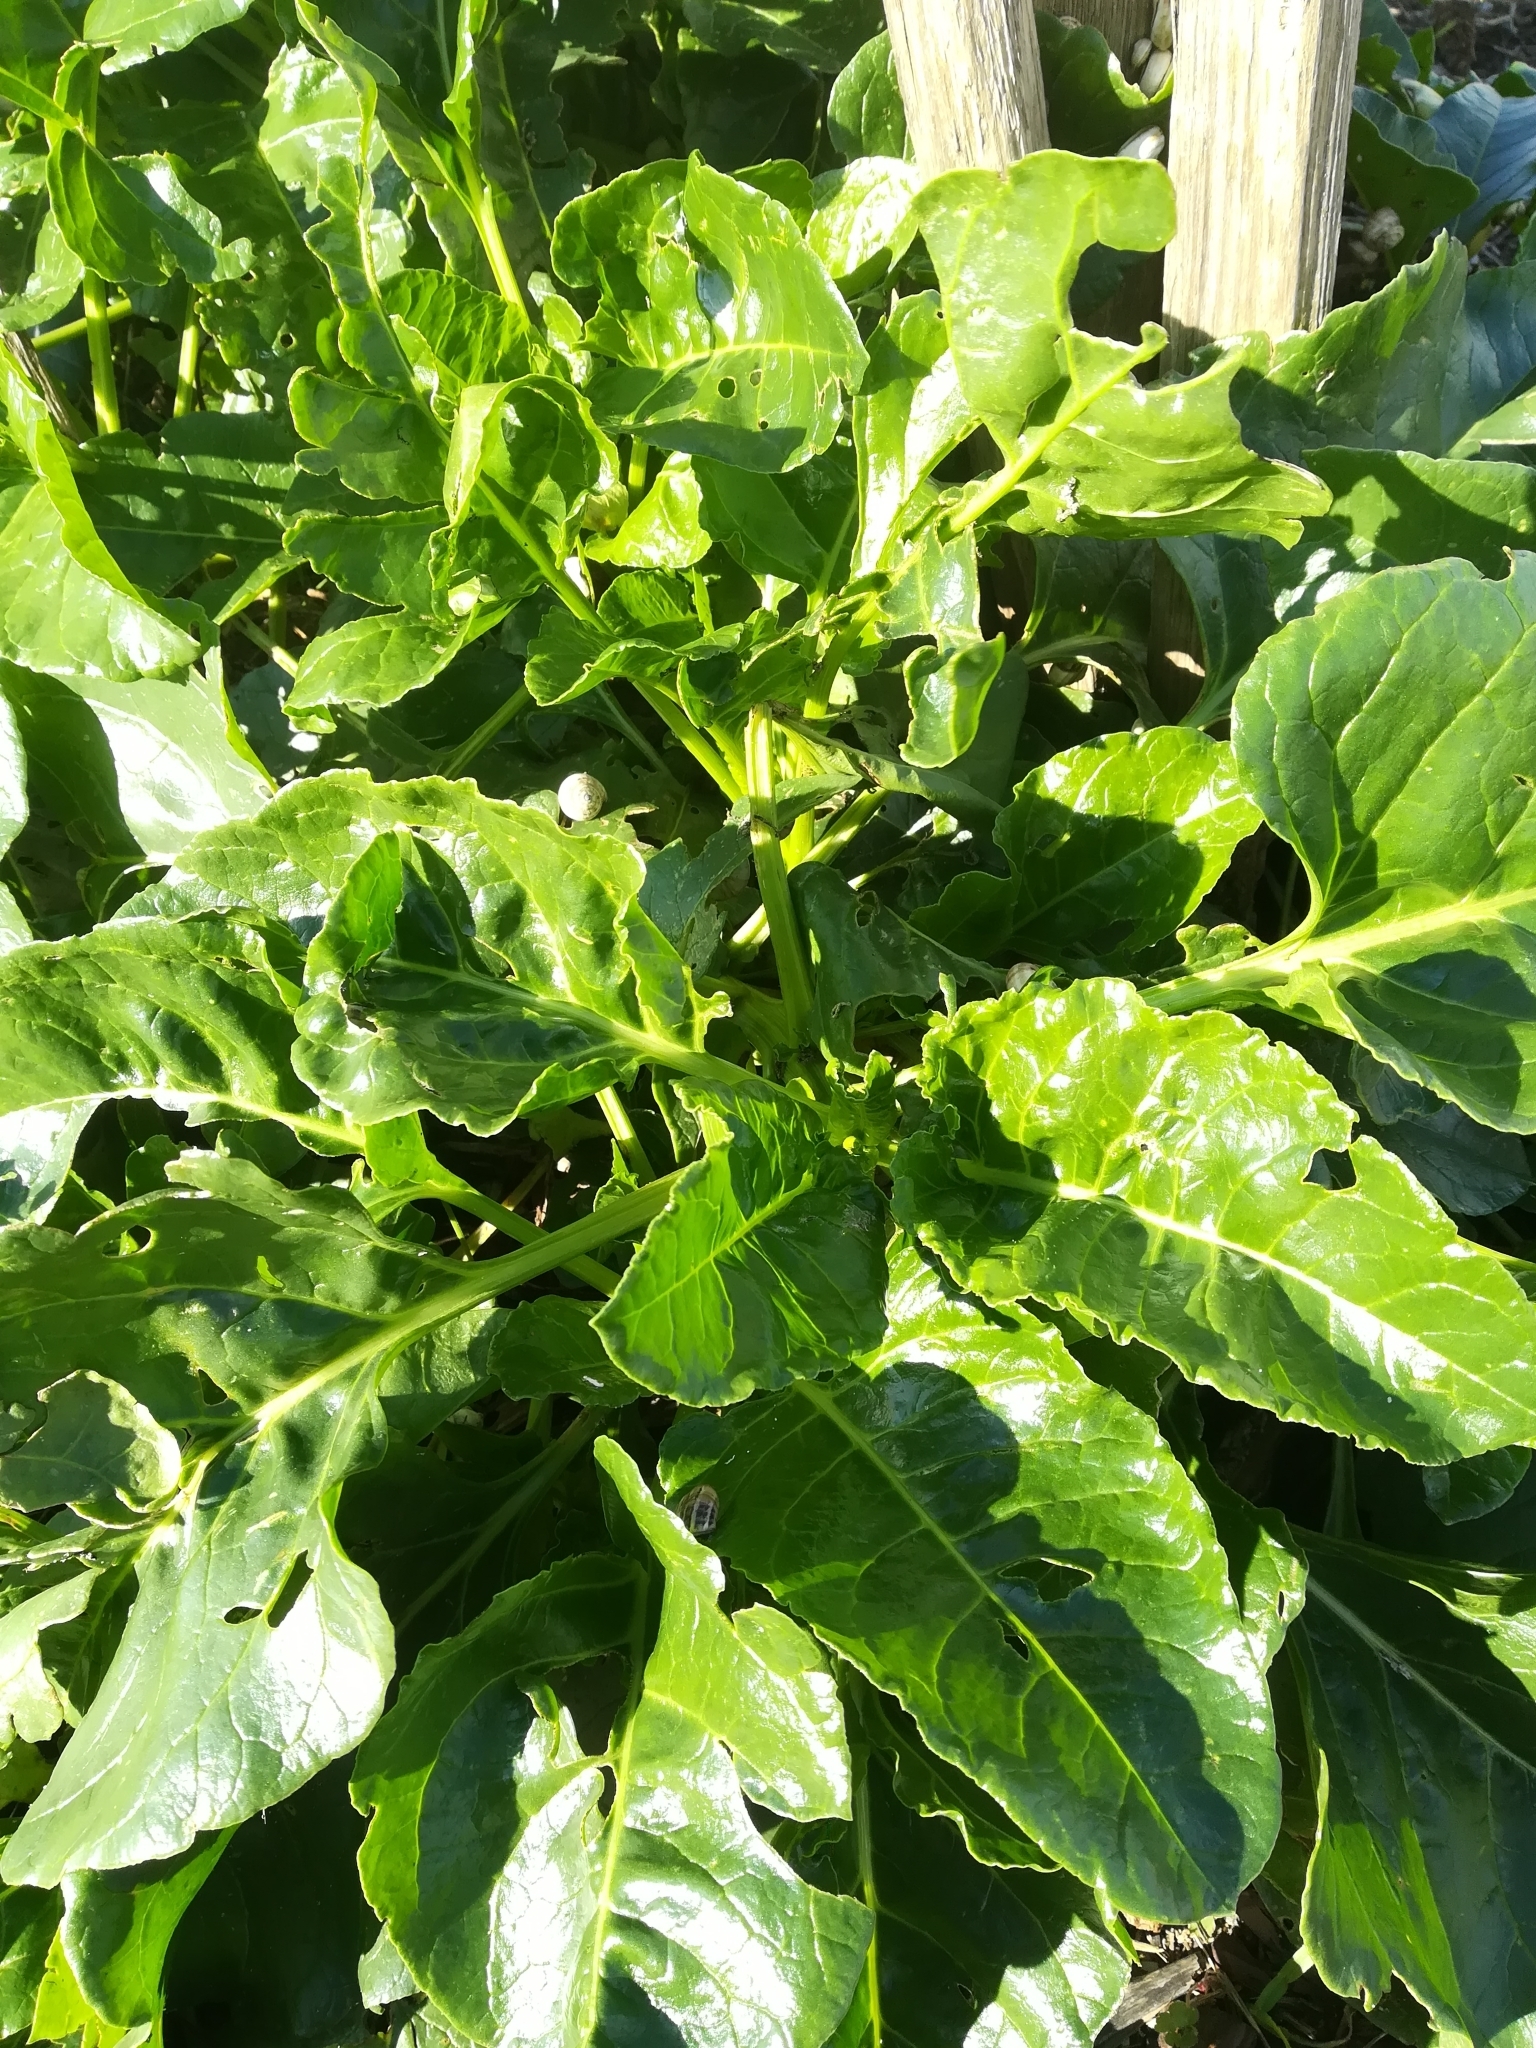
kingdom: Plantae
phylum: Tracheophyta
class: Magnoliopsida
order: Caryophyllales
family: Amaranthaceae
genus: Beta
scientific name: Beta vulgaris
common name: Beet
